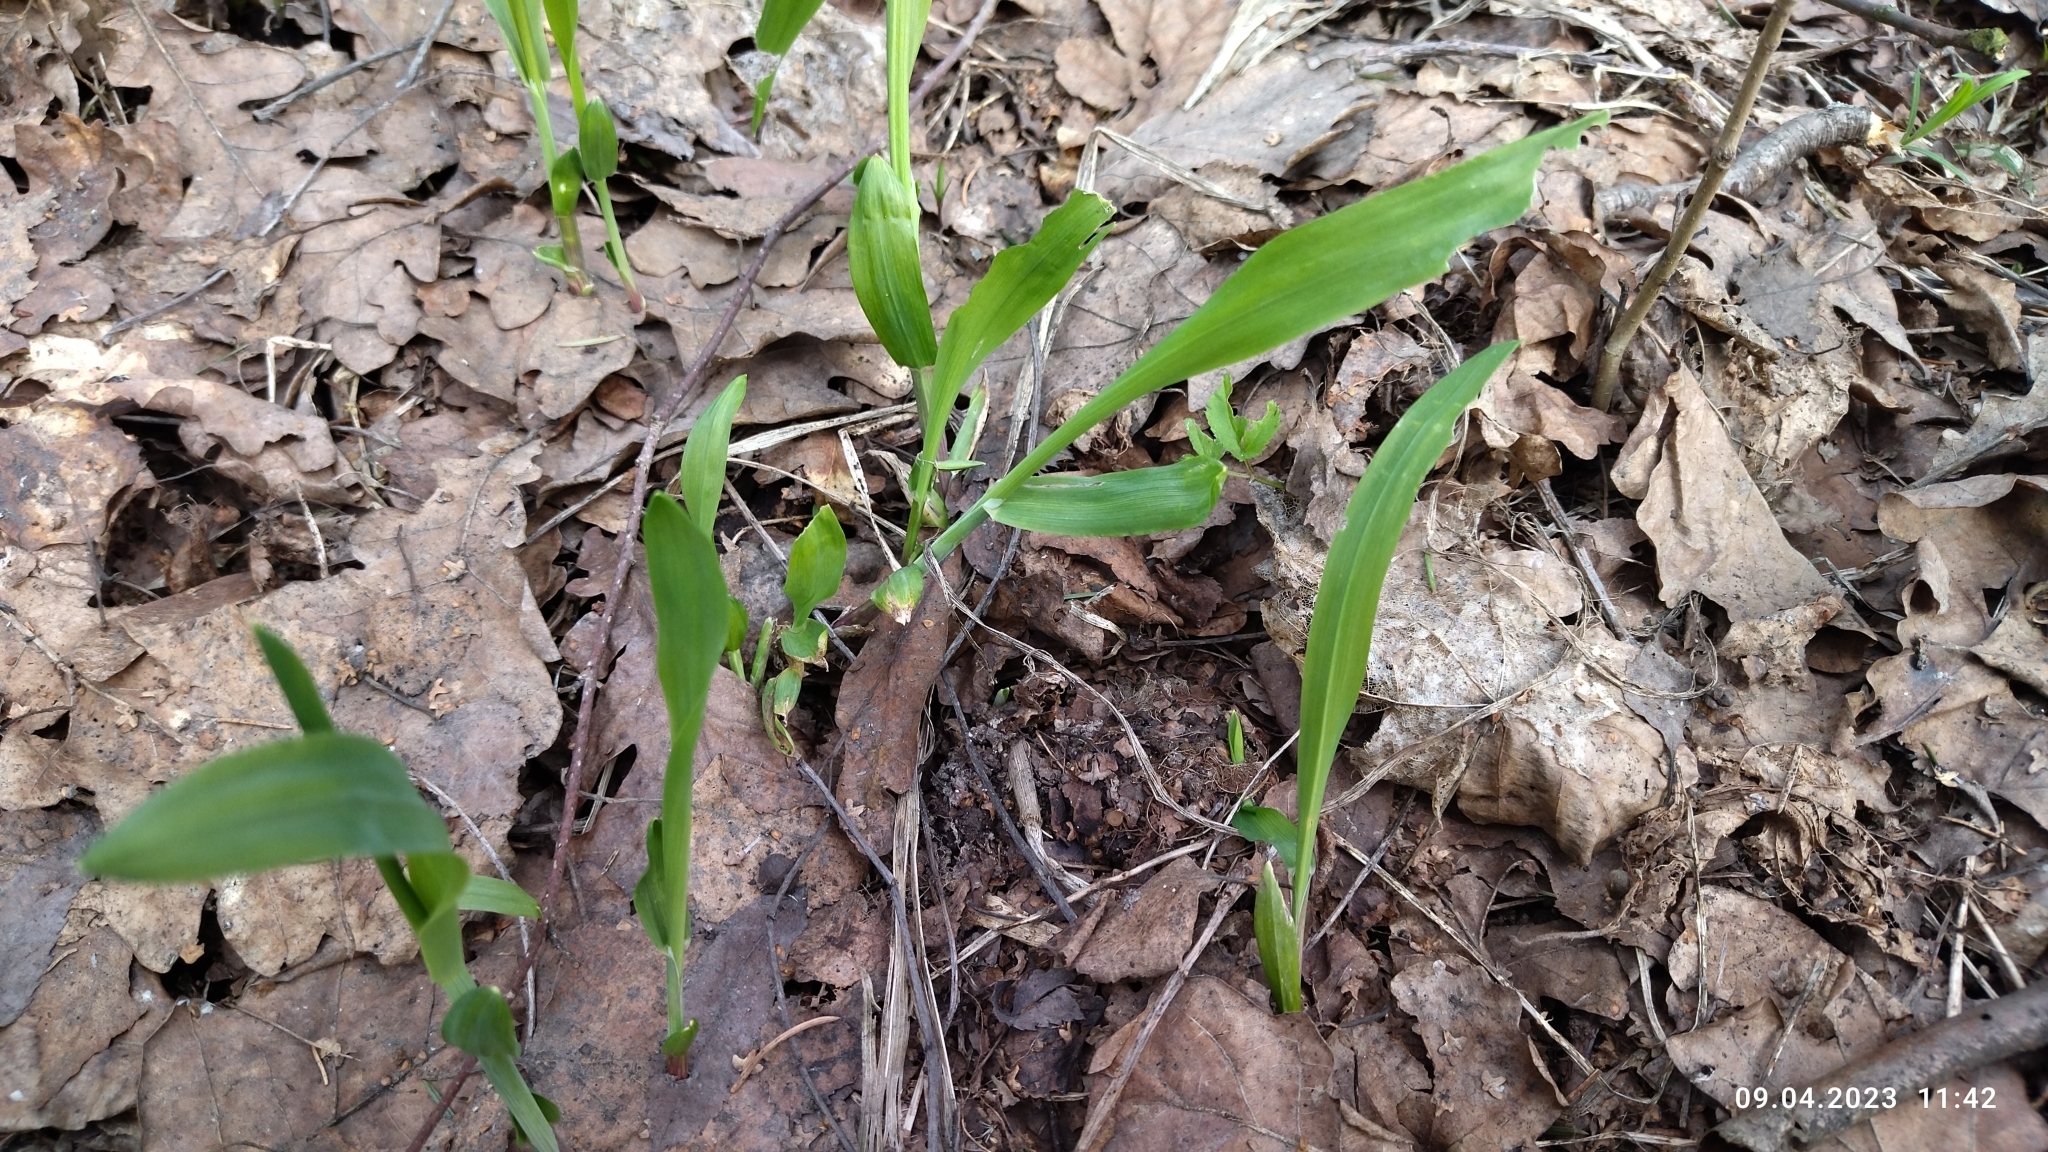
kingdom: Plantae
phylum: Tracheophyta
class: Liliopsida
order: Poales
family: Poaceae
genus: Milium
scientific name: Milium effusum
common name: Wood millet
